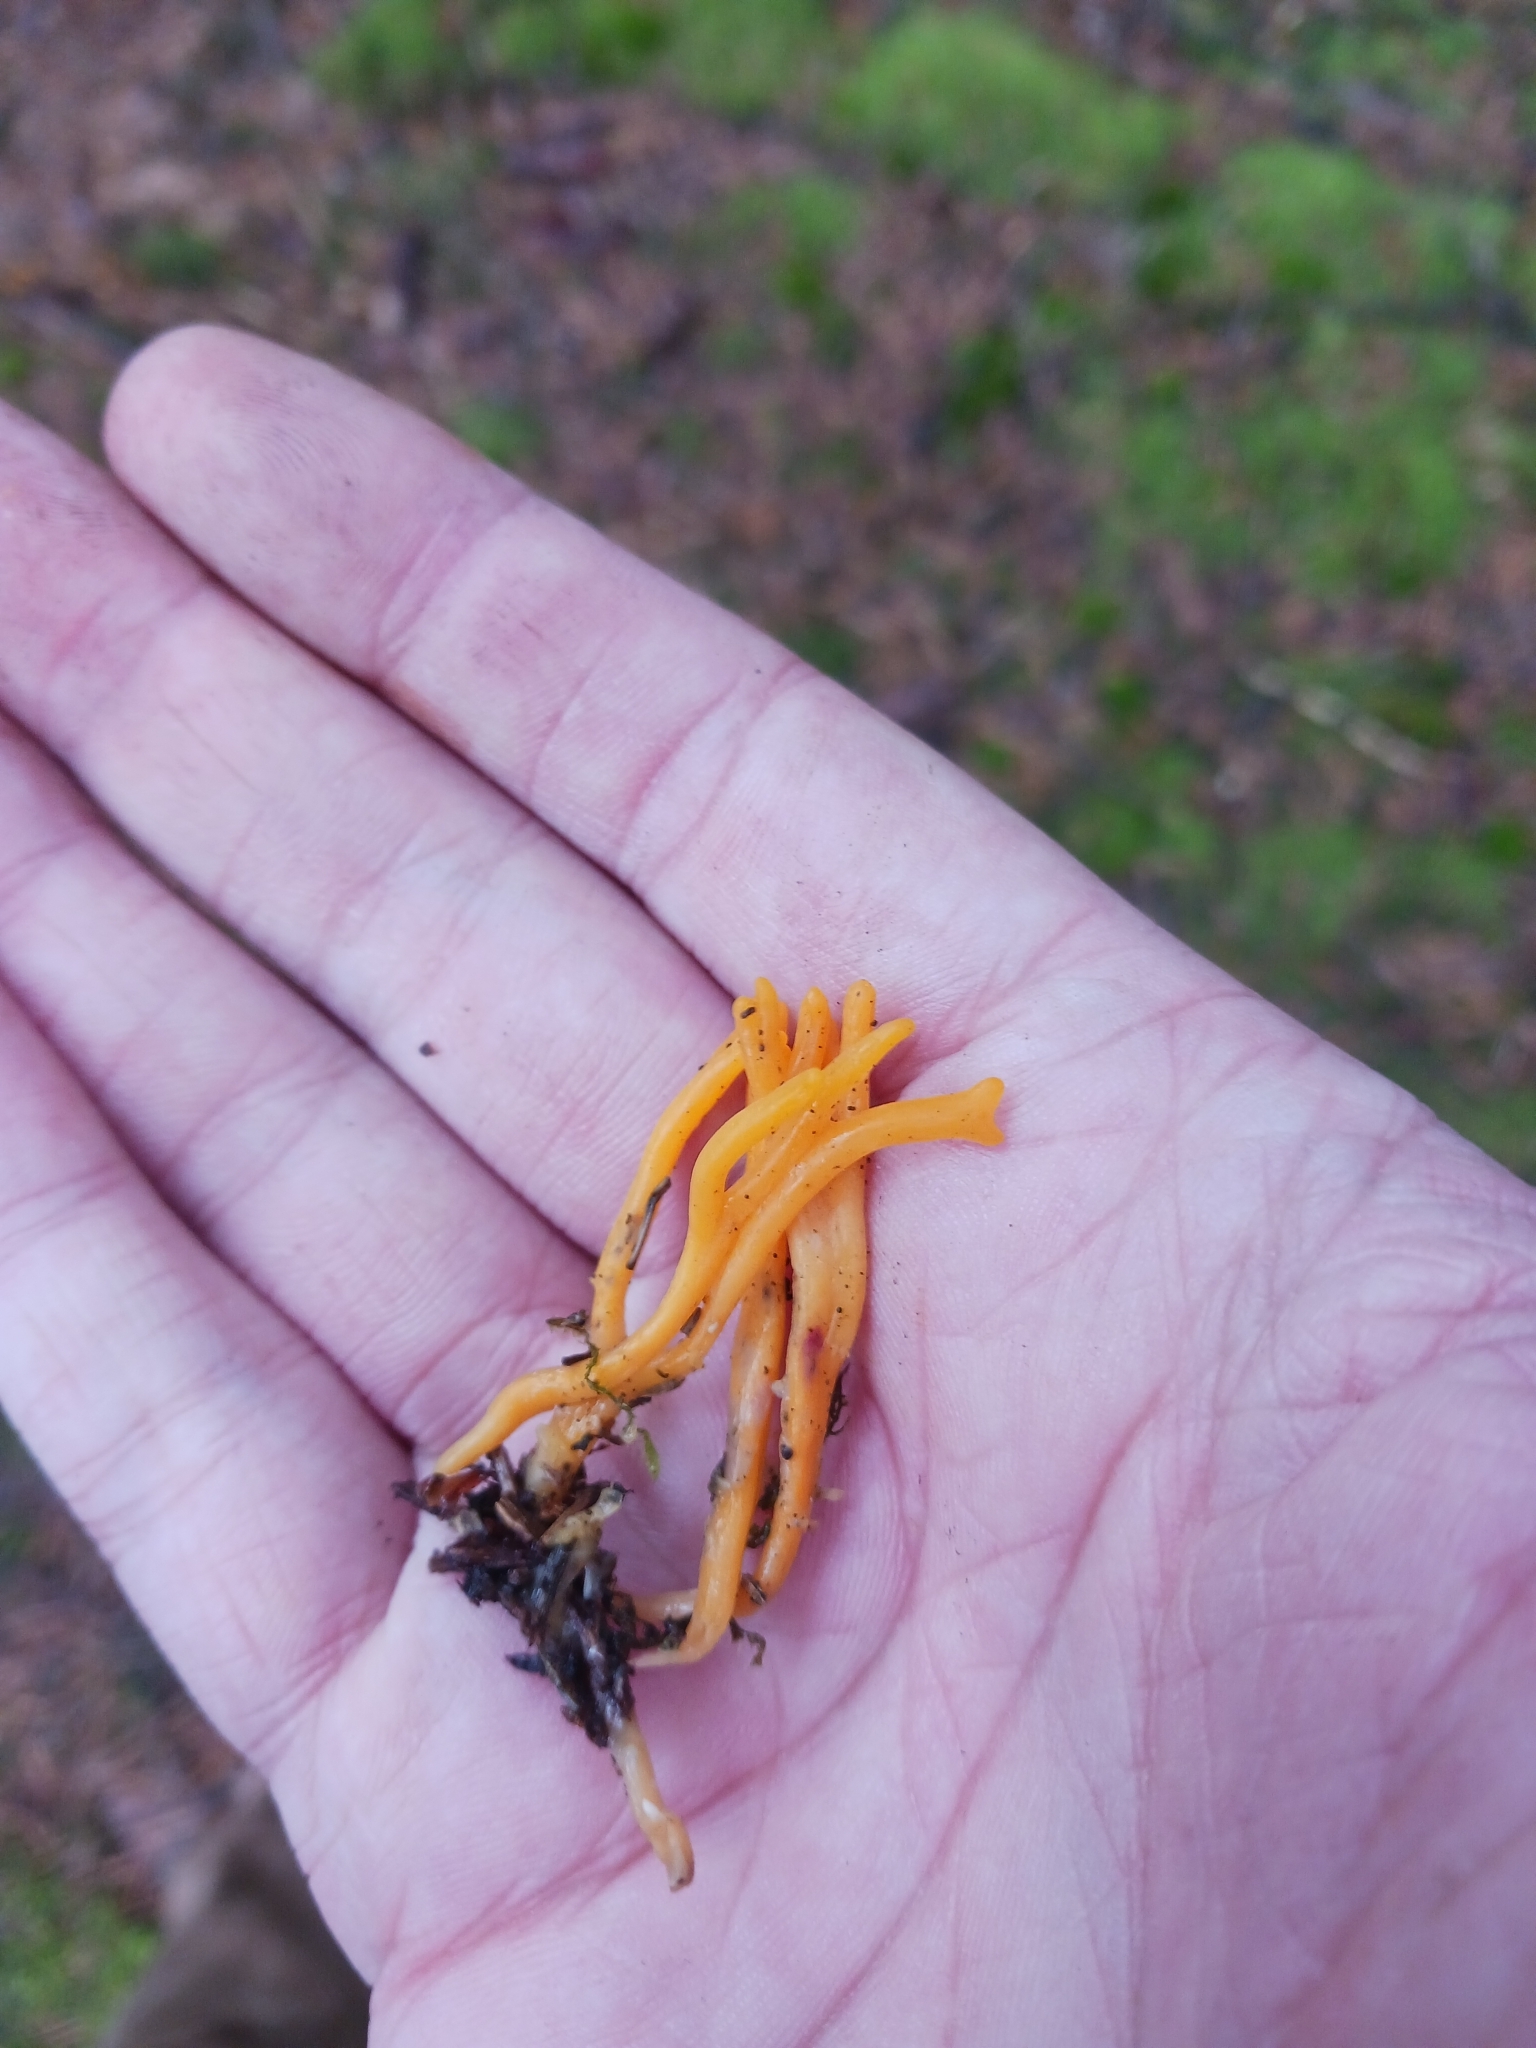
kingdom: Fungi
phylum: Basidiomycota
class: Dacrymycetes
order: Dacrymycetales
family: Dacrymycetaceae
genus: Calocera
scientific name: Calocera viscosa
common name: Yellow stagshorn
